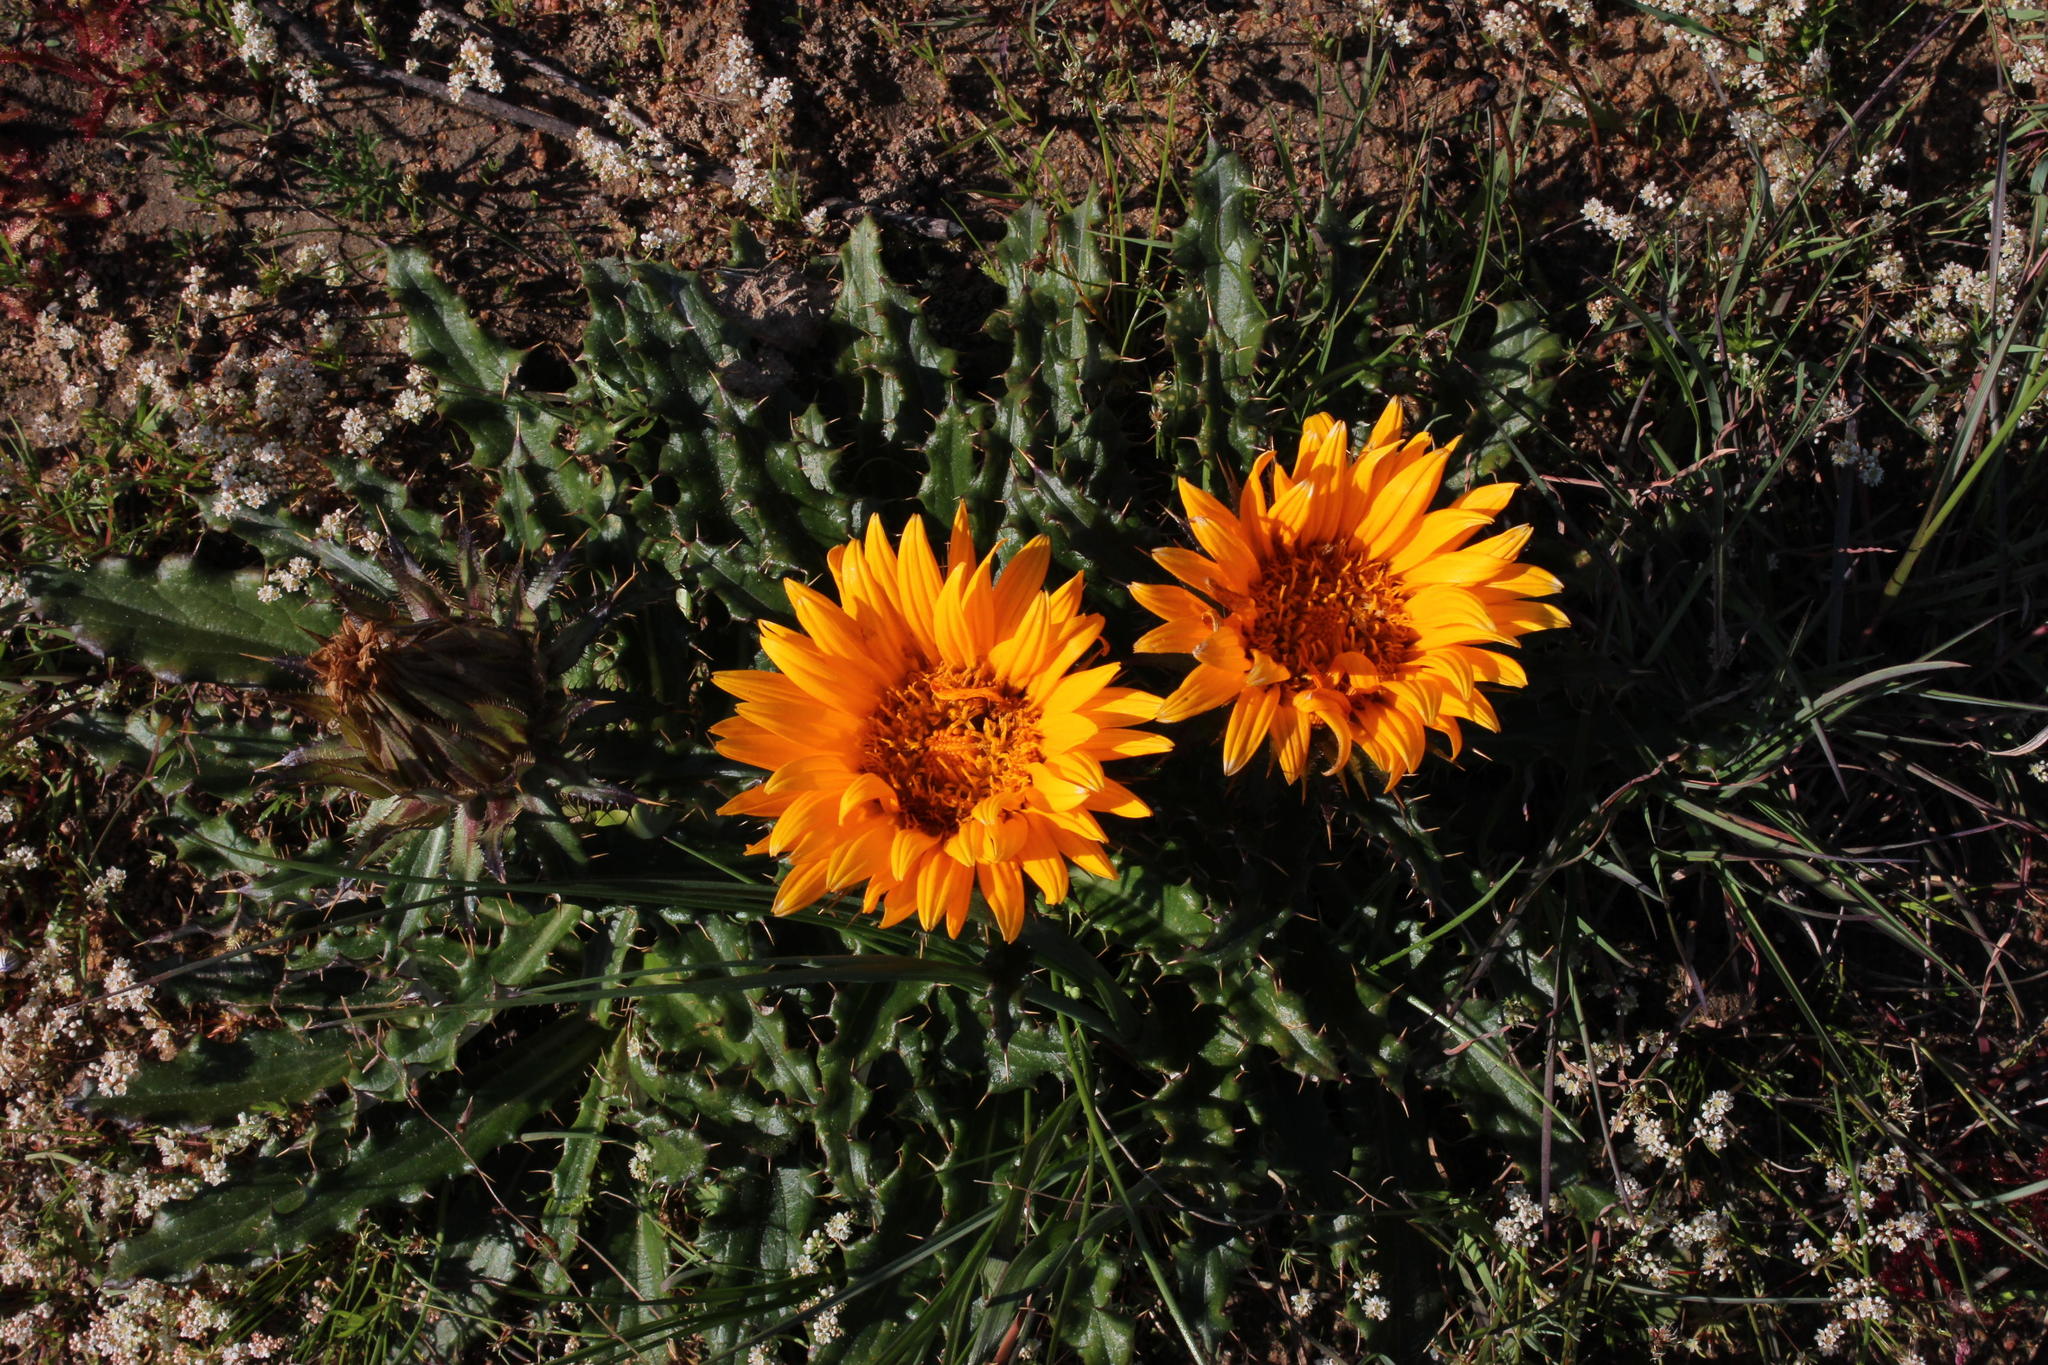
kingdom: Plantae
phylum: Tracheophyta
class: Magnoliopsida
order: Asterales
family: Asteraceae
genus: Berkheya
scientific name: Berkheya armata
